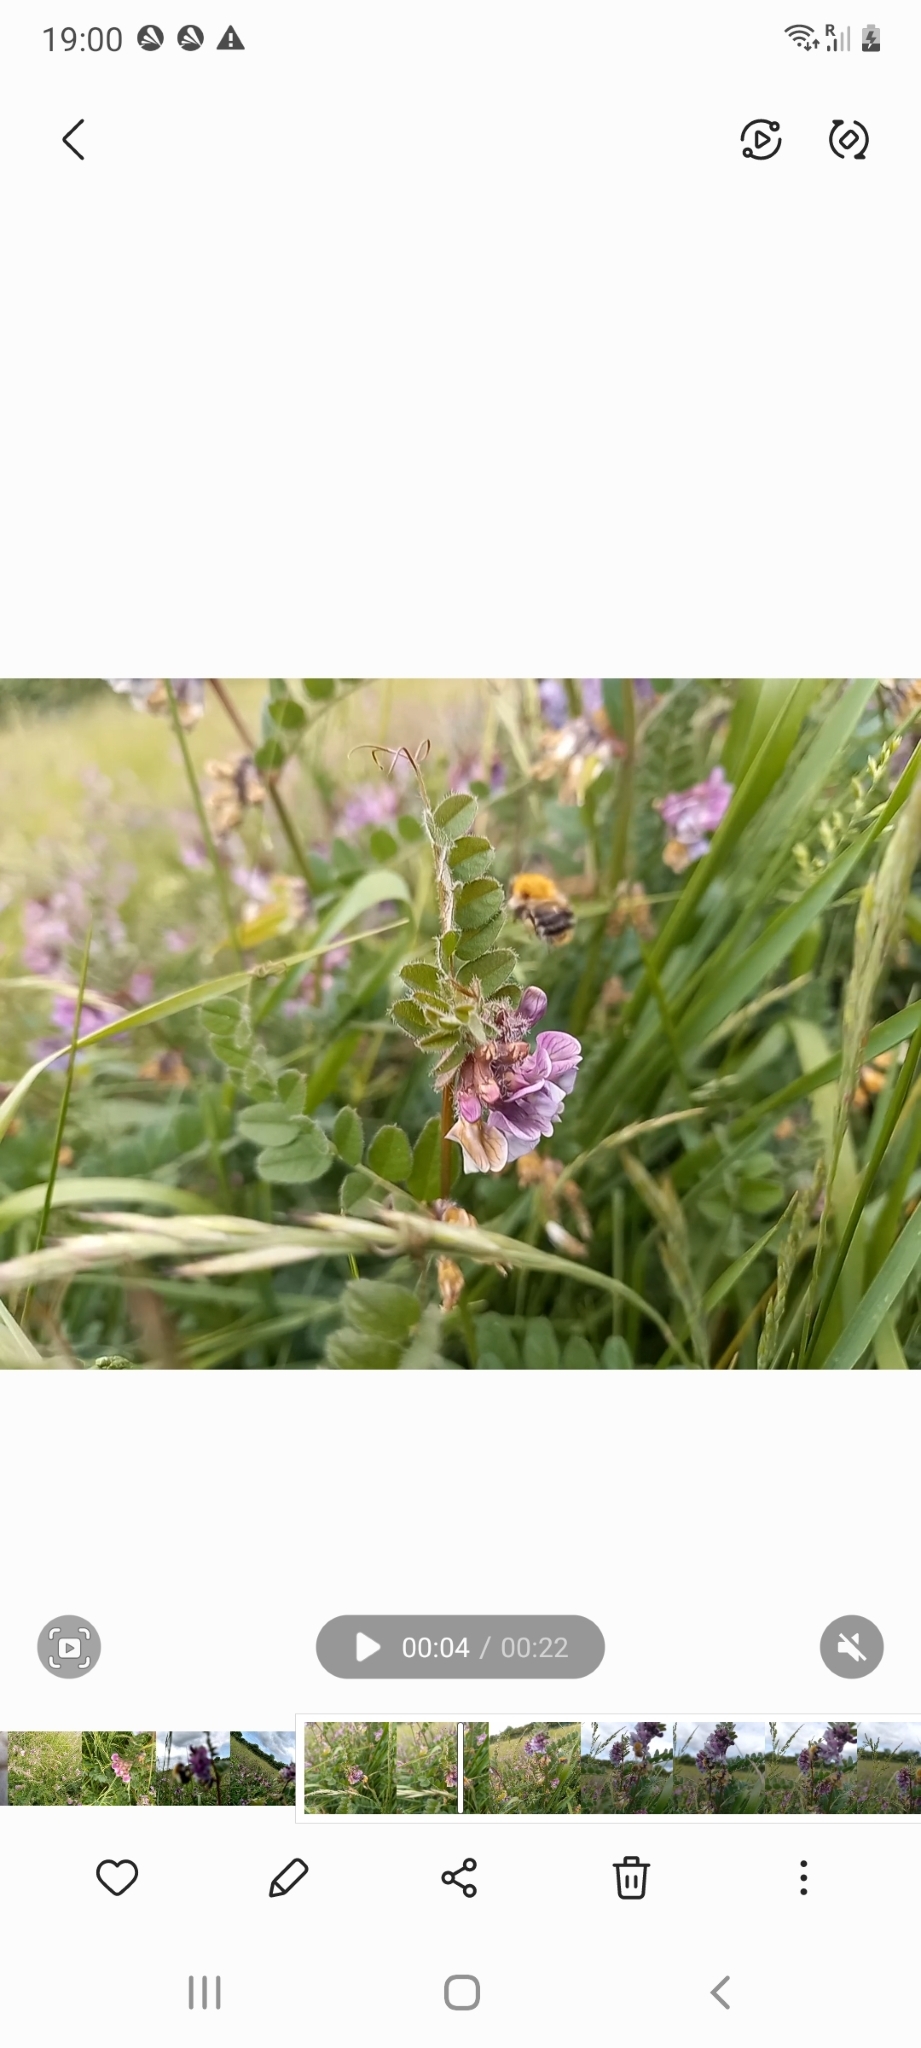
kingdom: Animalia
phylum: Arthropoda
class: Insecta
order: Hymenoptera
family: Apidae
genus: Bombus
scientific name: Bombus pascuorum
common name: Common carder bee
